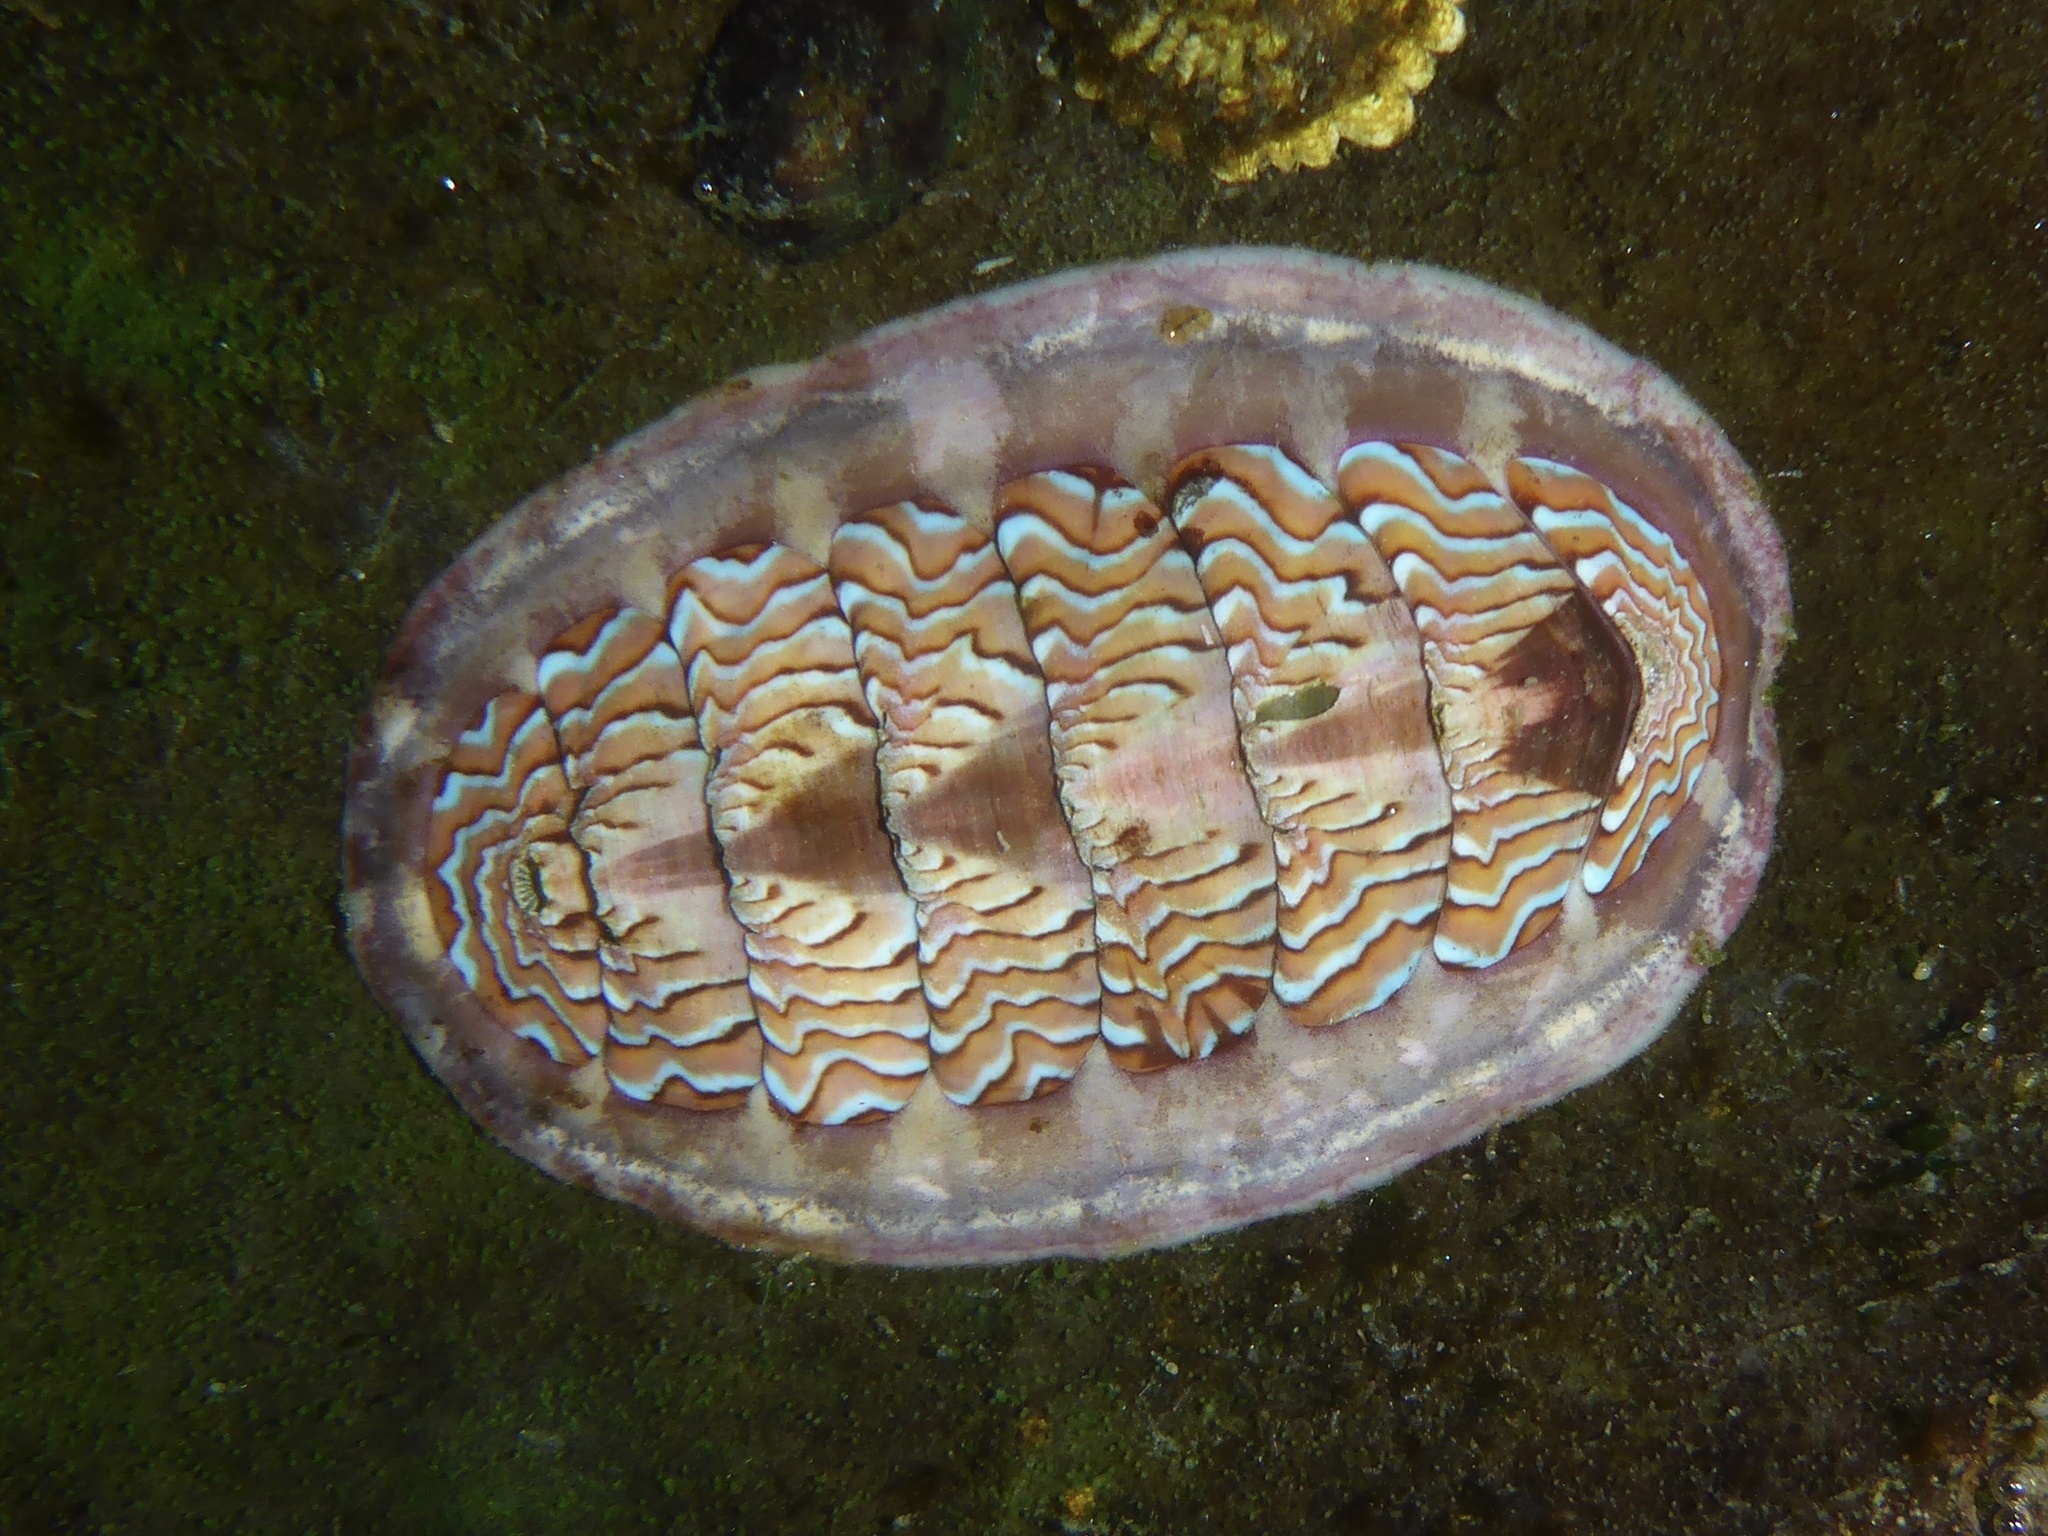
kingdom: Animalia
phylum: Mollusca
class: Polyplacophora
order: Chitonida
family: Tonicellidae
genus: Tonicella
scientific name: Tonicella lokii
